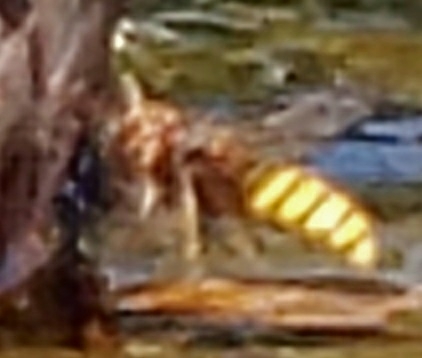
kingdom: Animalia
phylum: Arthropoda
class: Insecta
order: Hymenoptera
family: Vespidae
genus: Vespa
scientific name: Vespa crabro
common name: Hornet
